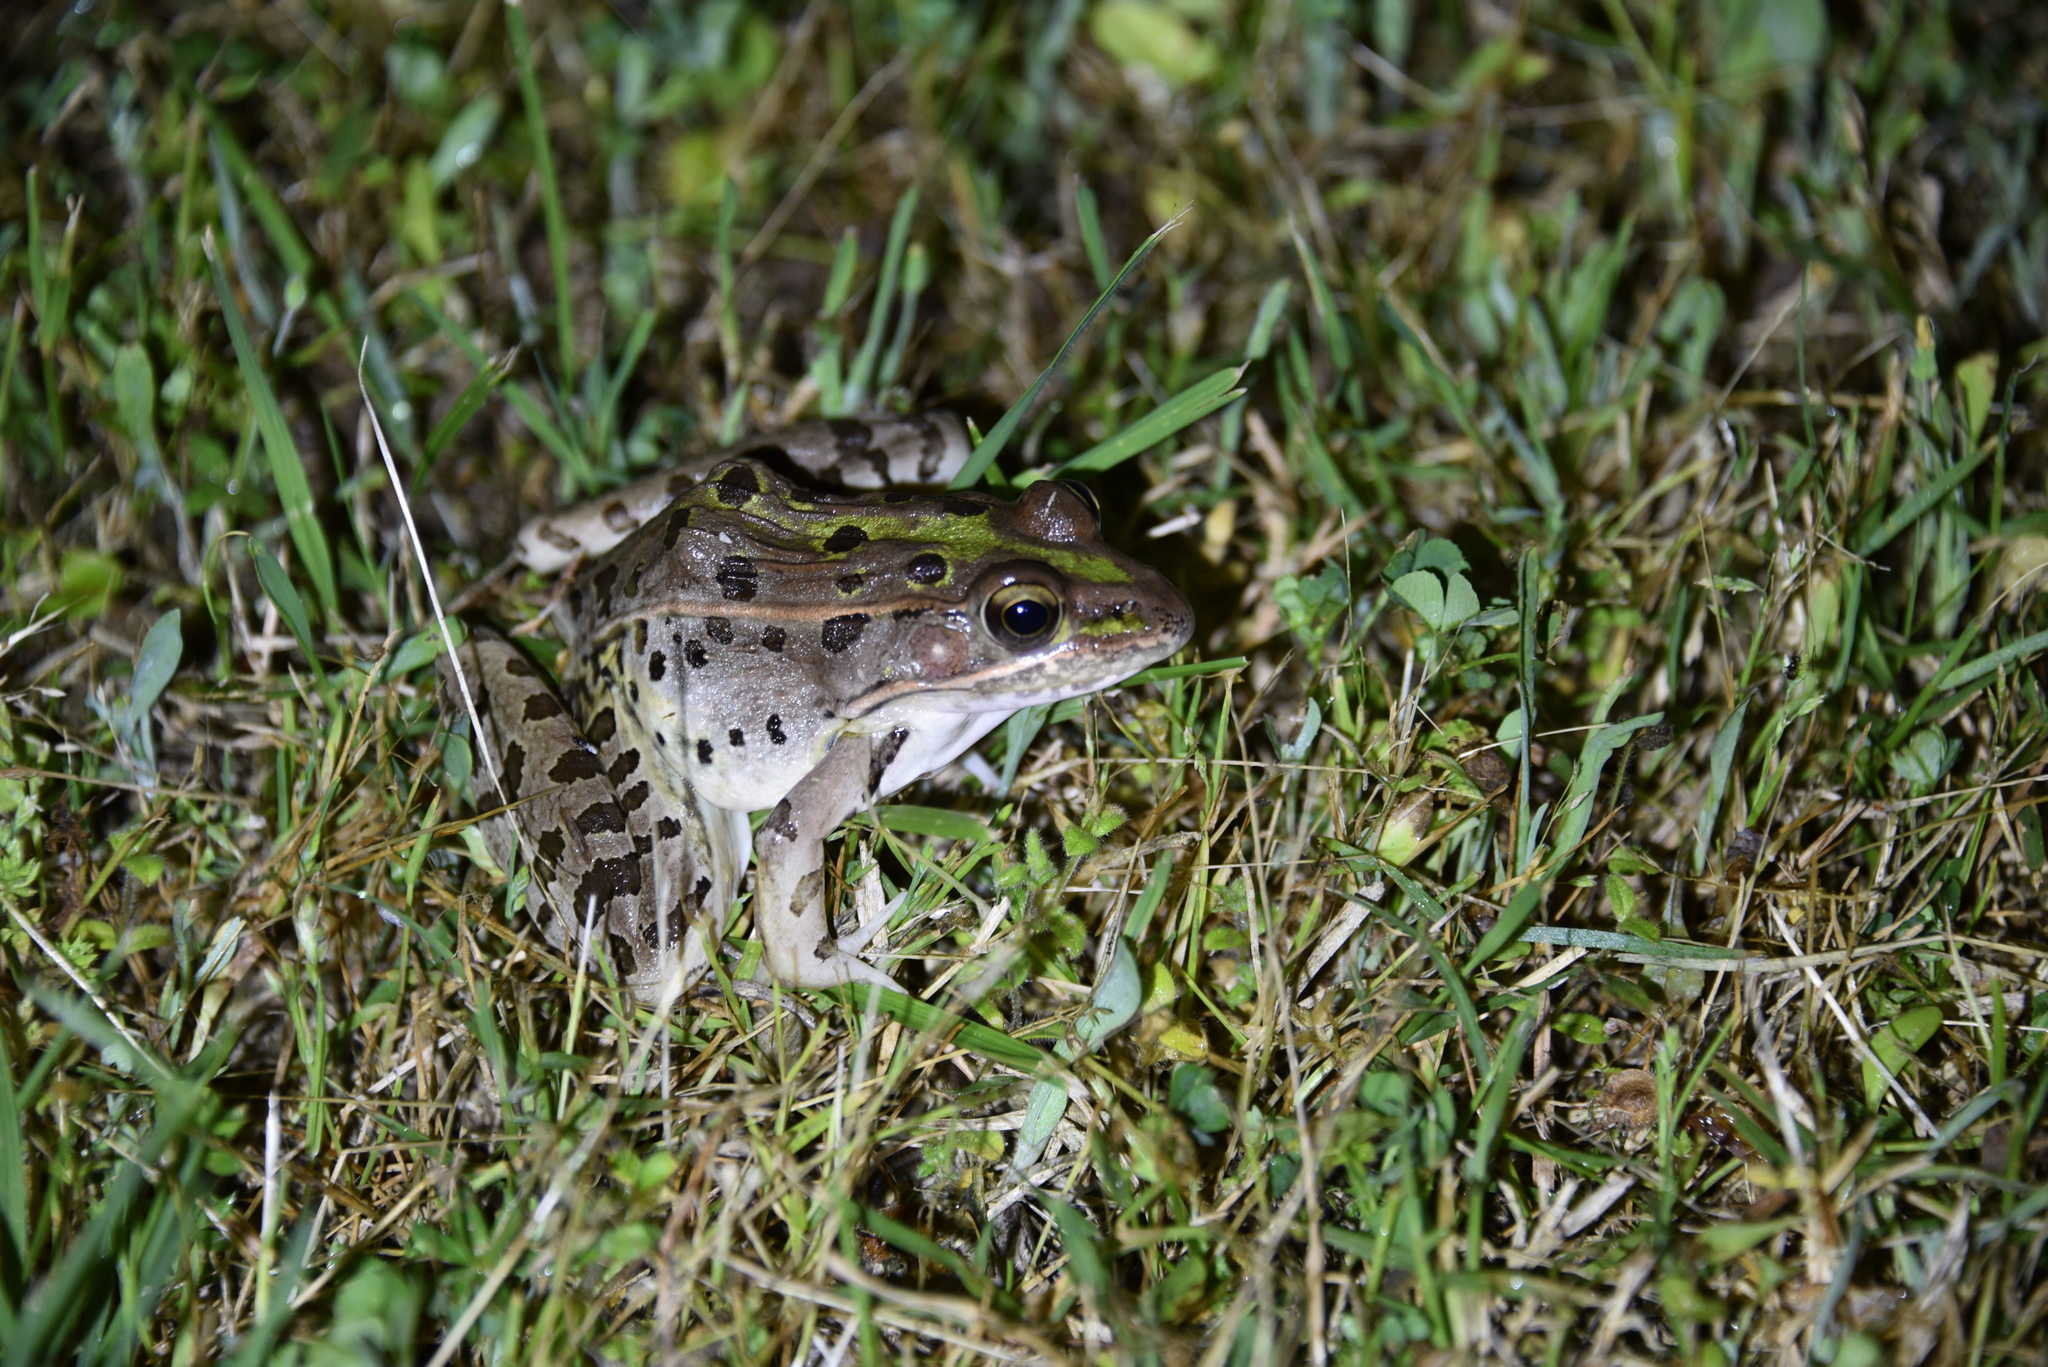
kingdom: Animalia
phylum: Chordata
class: Amphibia
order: Anura
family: Ranidae
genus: Lithobates
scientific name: Lithobates sphenocephalus
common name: Southern leopard frog
